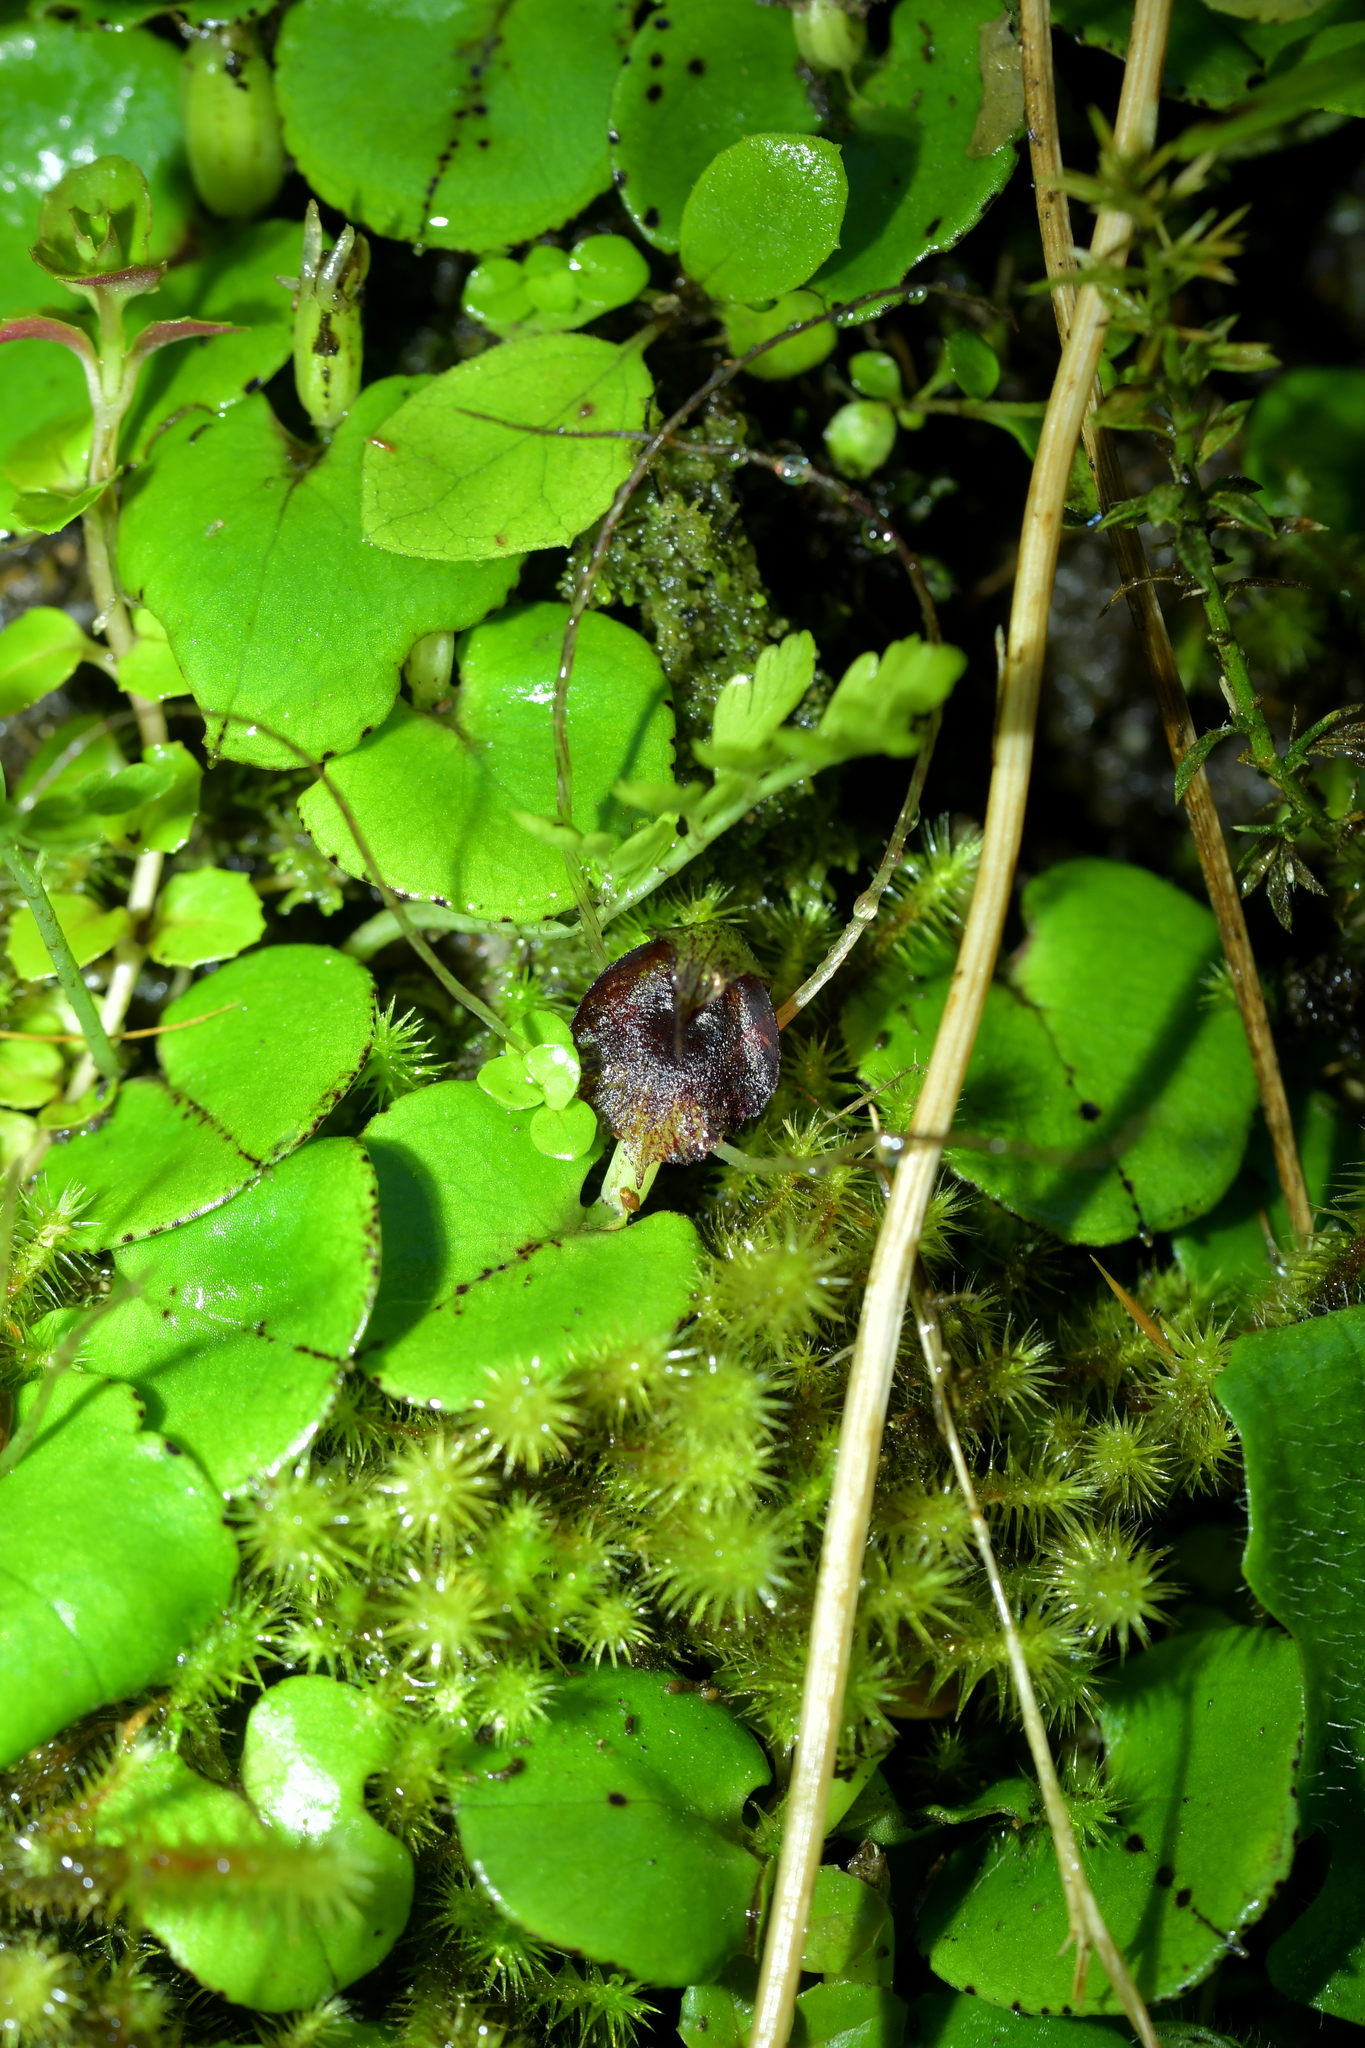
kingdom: Plantae
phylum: Tracheophyta
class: Liliopsida
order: Asparagales
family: Orchidaceae
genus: Corybas
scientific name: Corybas hatchii
